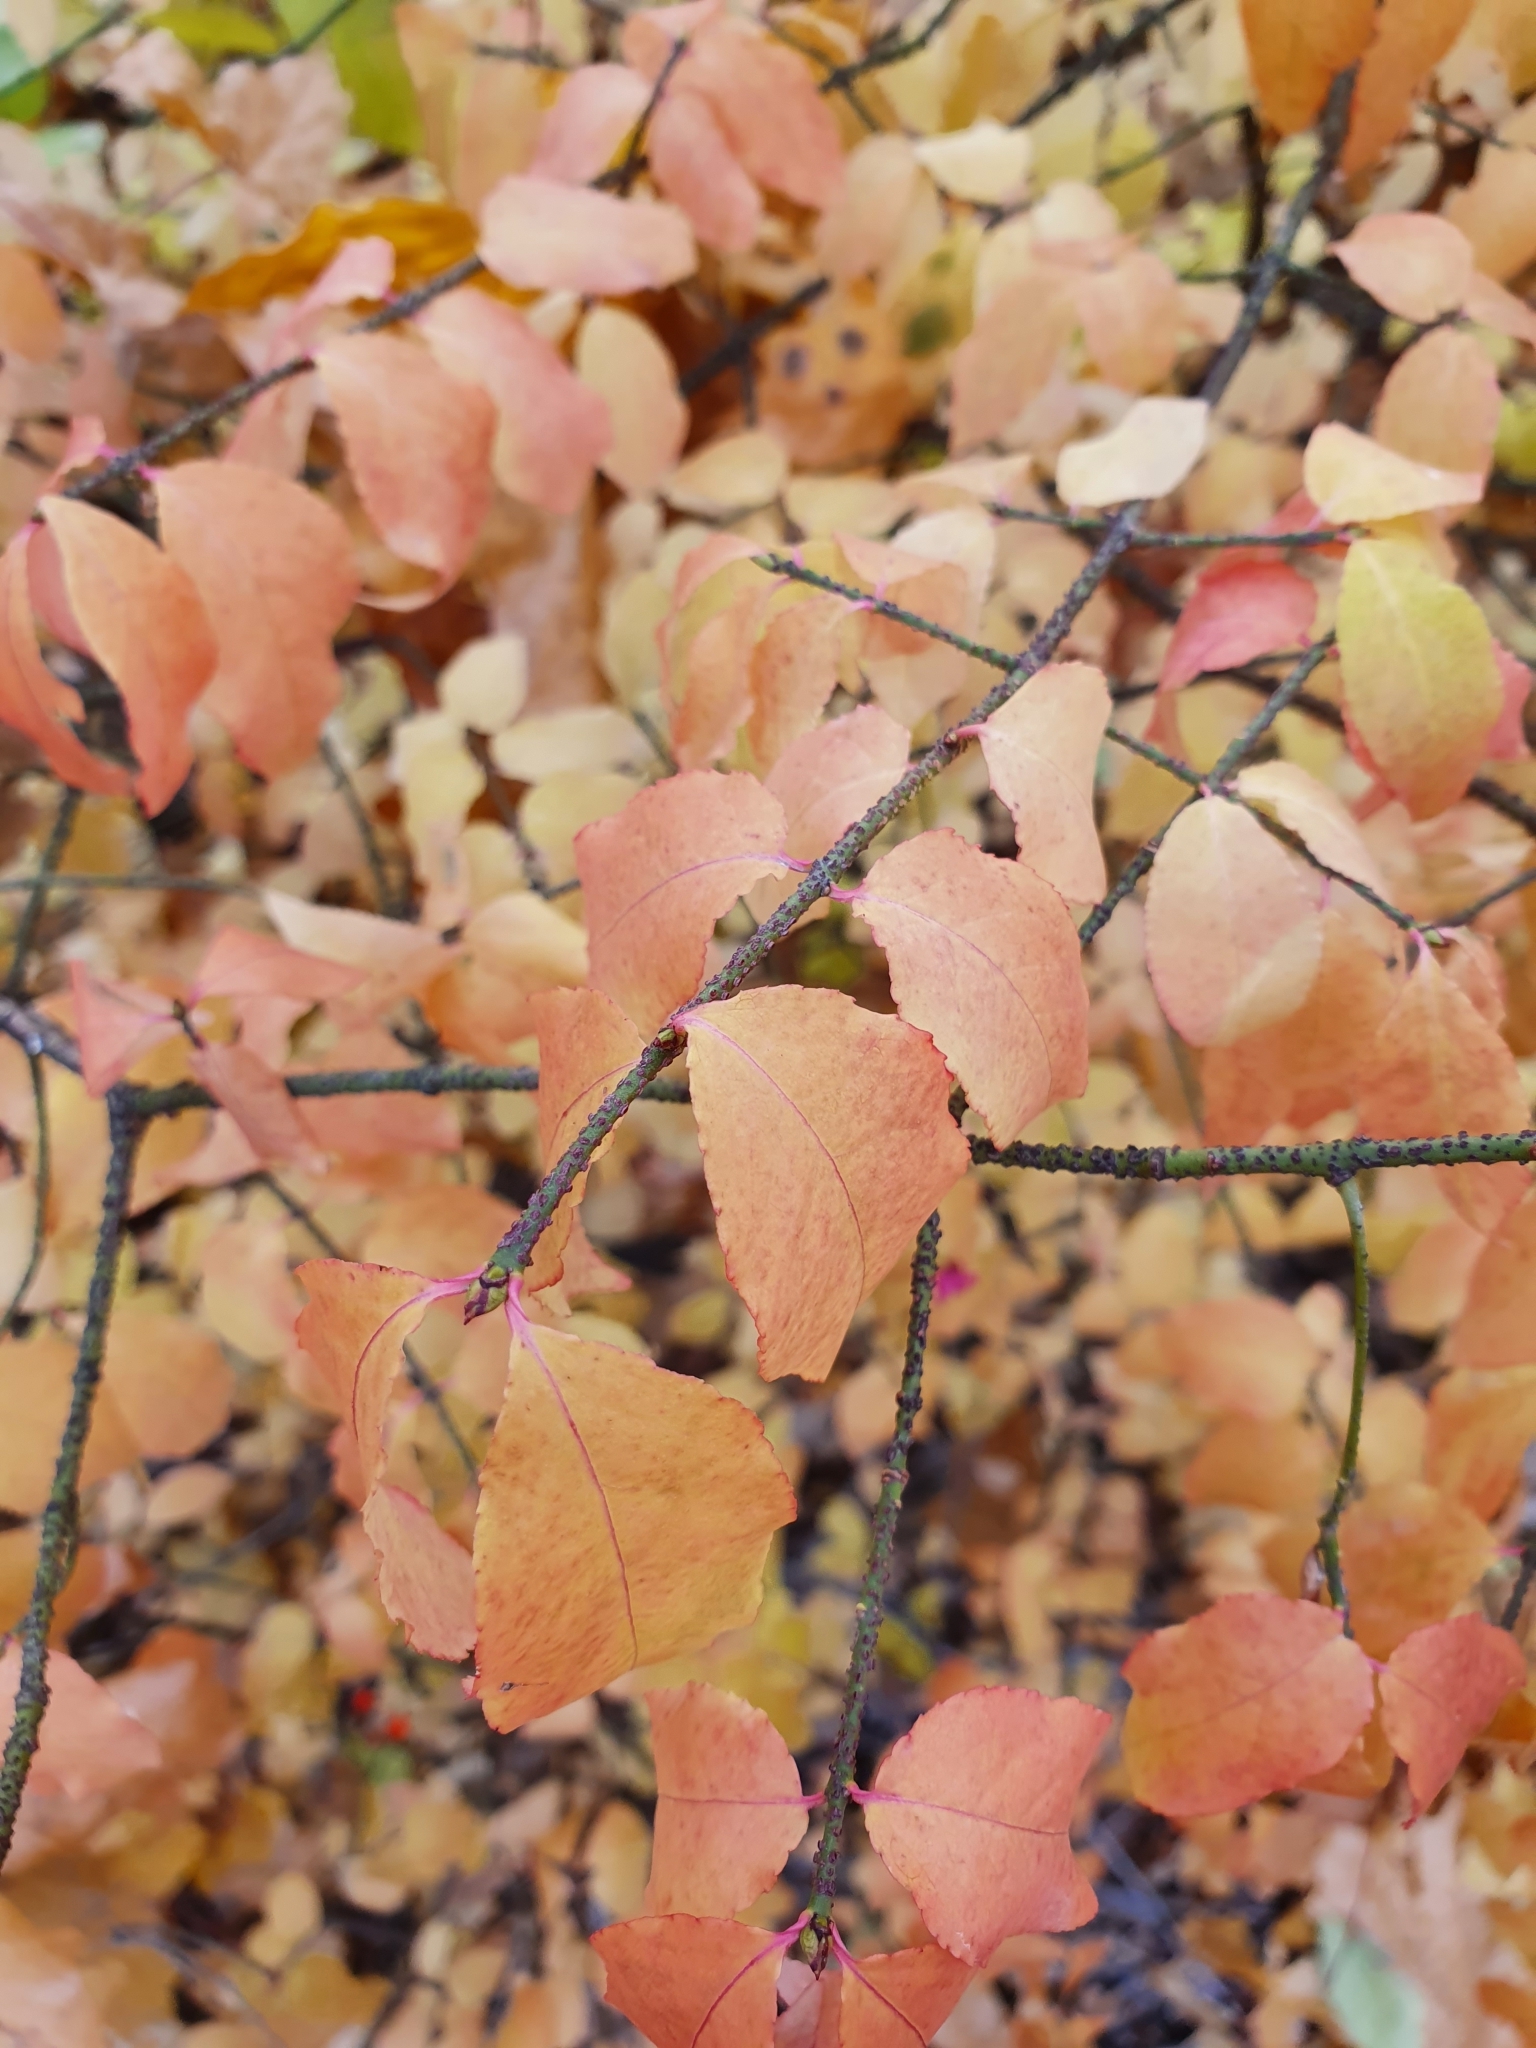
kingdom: Plantae
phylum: Tracheophyta
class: Magnoliopsida
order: Celastrales
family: Celastraceae
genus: Euonymus
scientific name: Euonymus verrucosus
